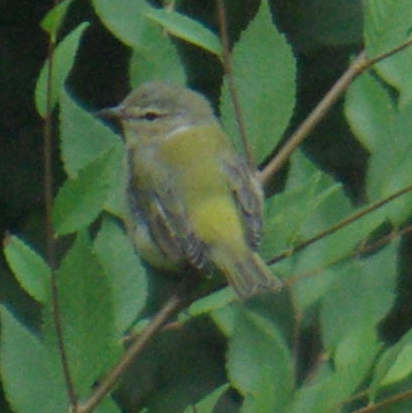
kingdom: Animalia
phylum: Chordata
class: Aves
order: Passeriformes
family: Parulidae
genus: Leiothlypis
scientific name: Leiothlypis peregrina
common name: Tennessee warbler
